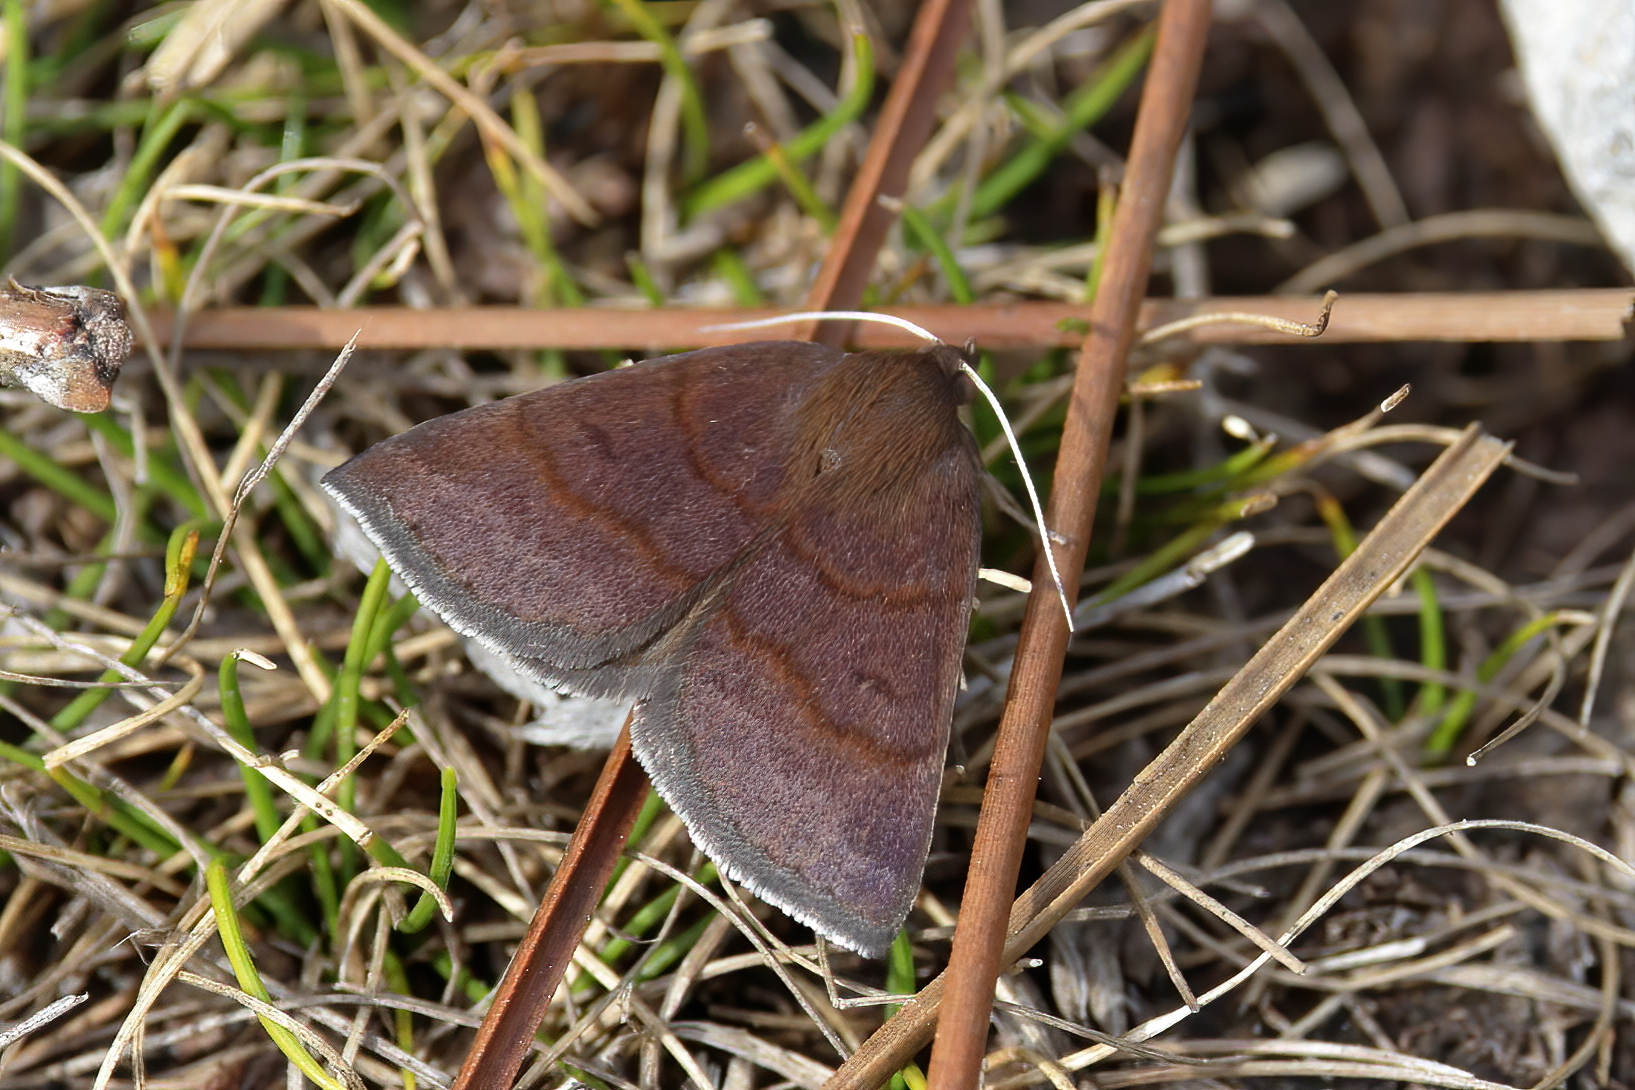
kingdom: Animalia
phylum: Arthropoda
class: Insecta
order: Lepidoptera
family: Erebidae
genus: Argyrostrotis
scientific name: Argyrostrotis deleta
